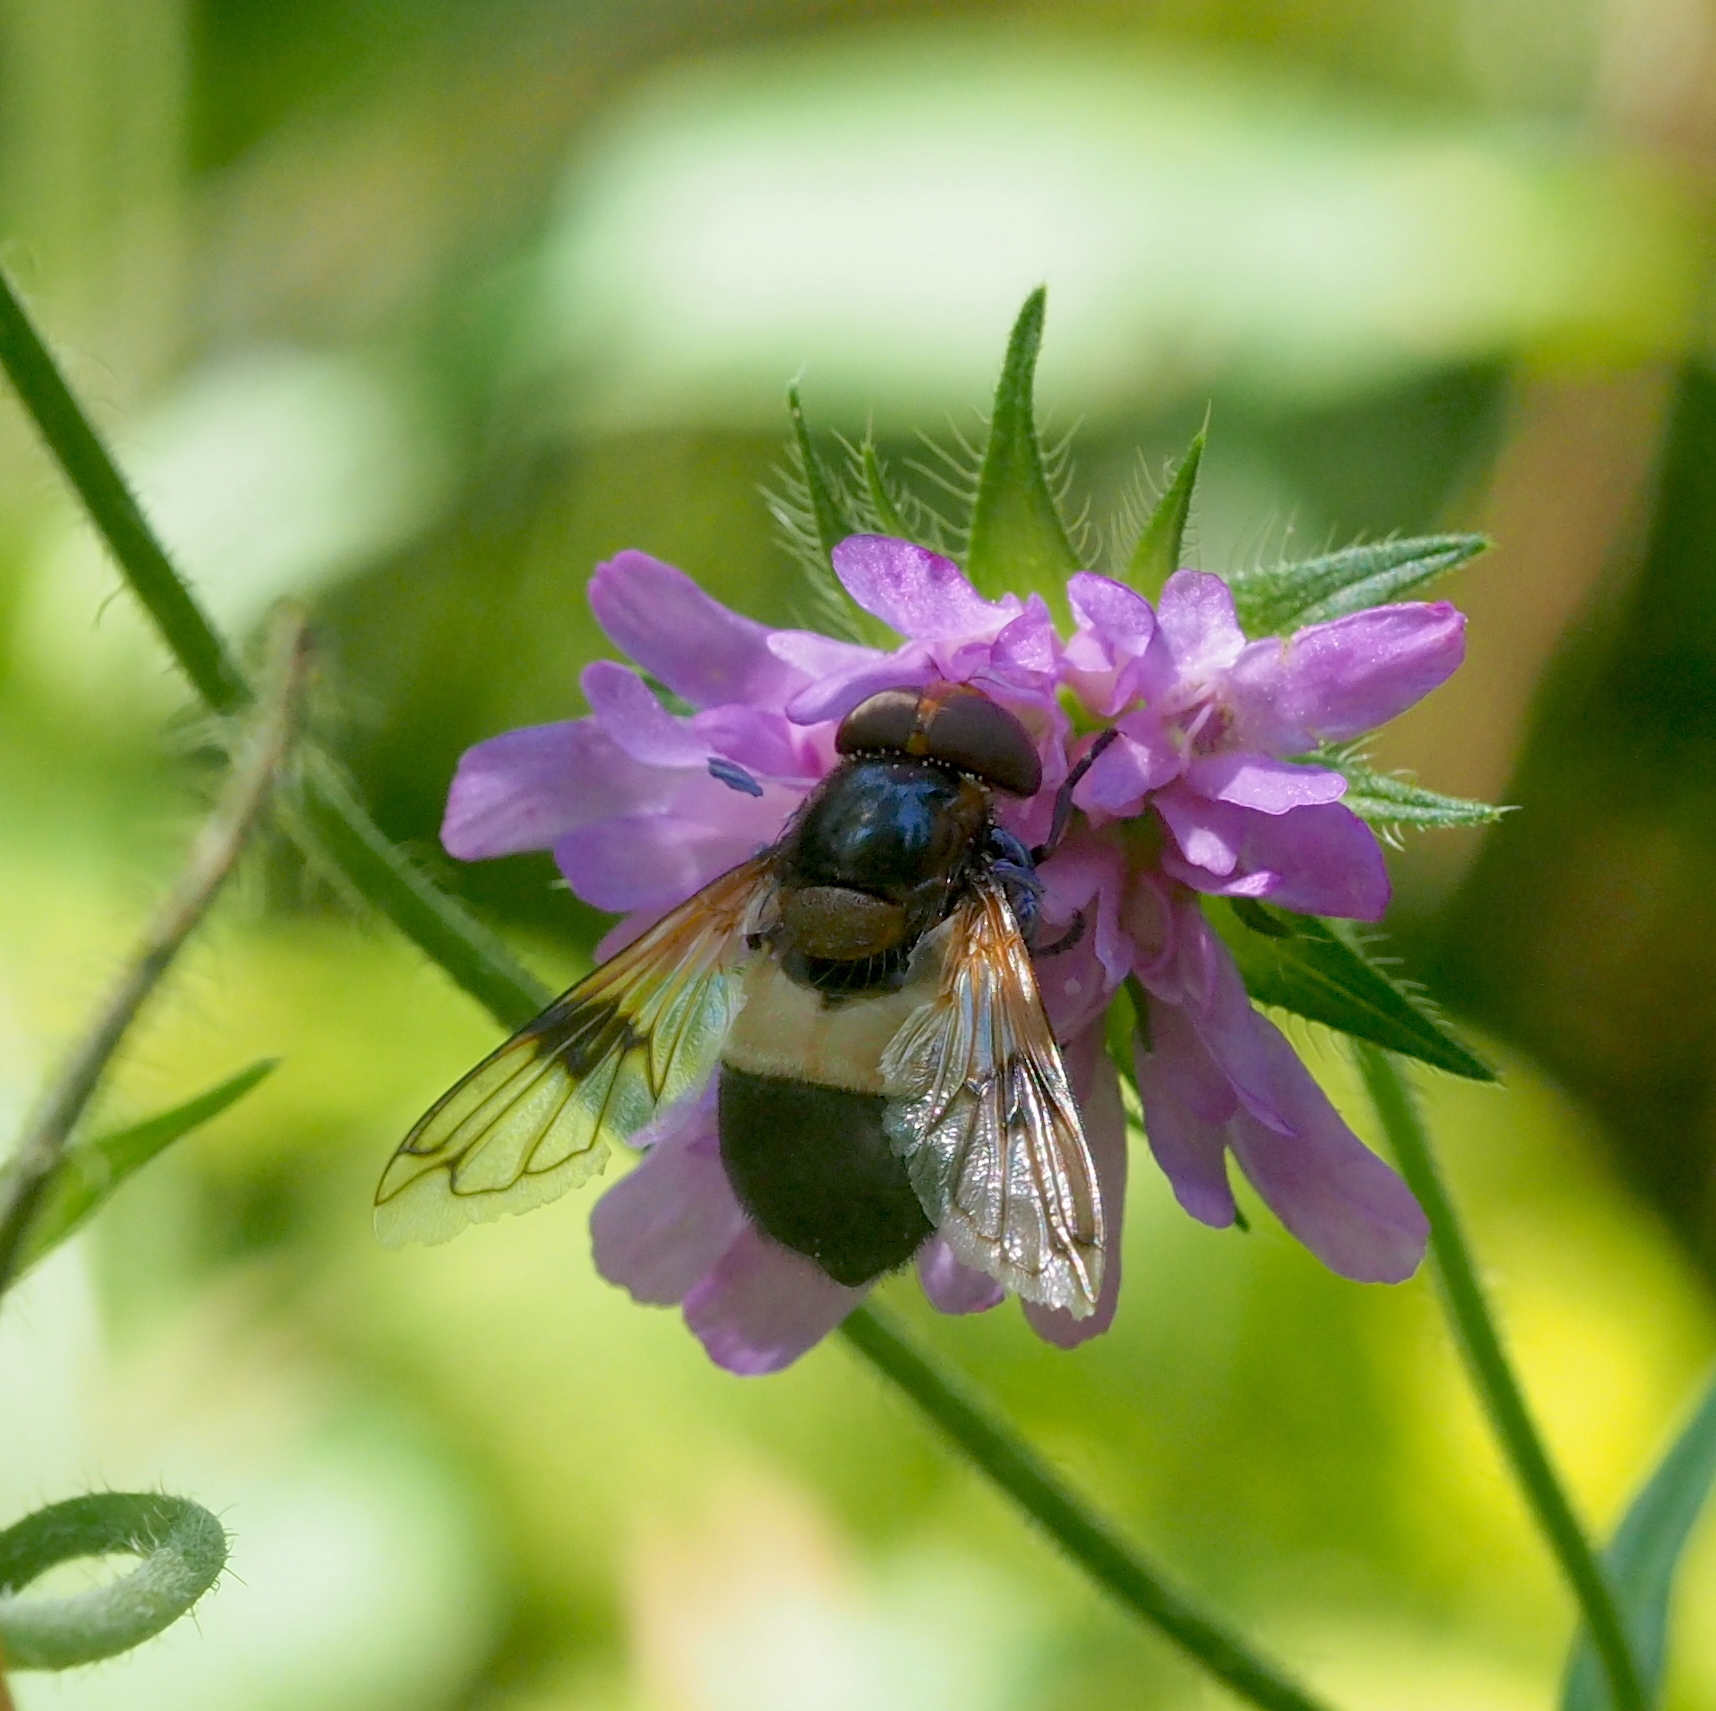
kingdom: Animalia
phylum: Arthropoda
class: Insecta
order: Diptera
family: Syrphidae
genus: Volucella
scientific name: Volucella pellucens
